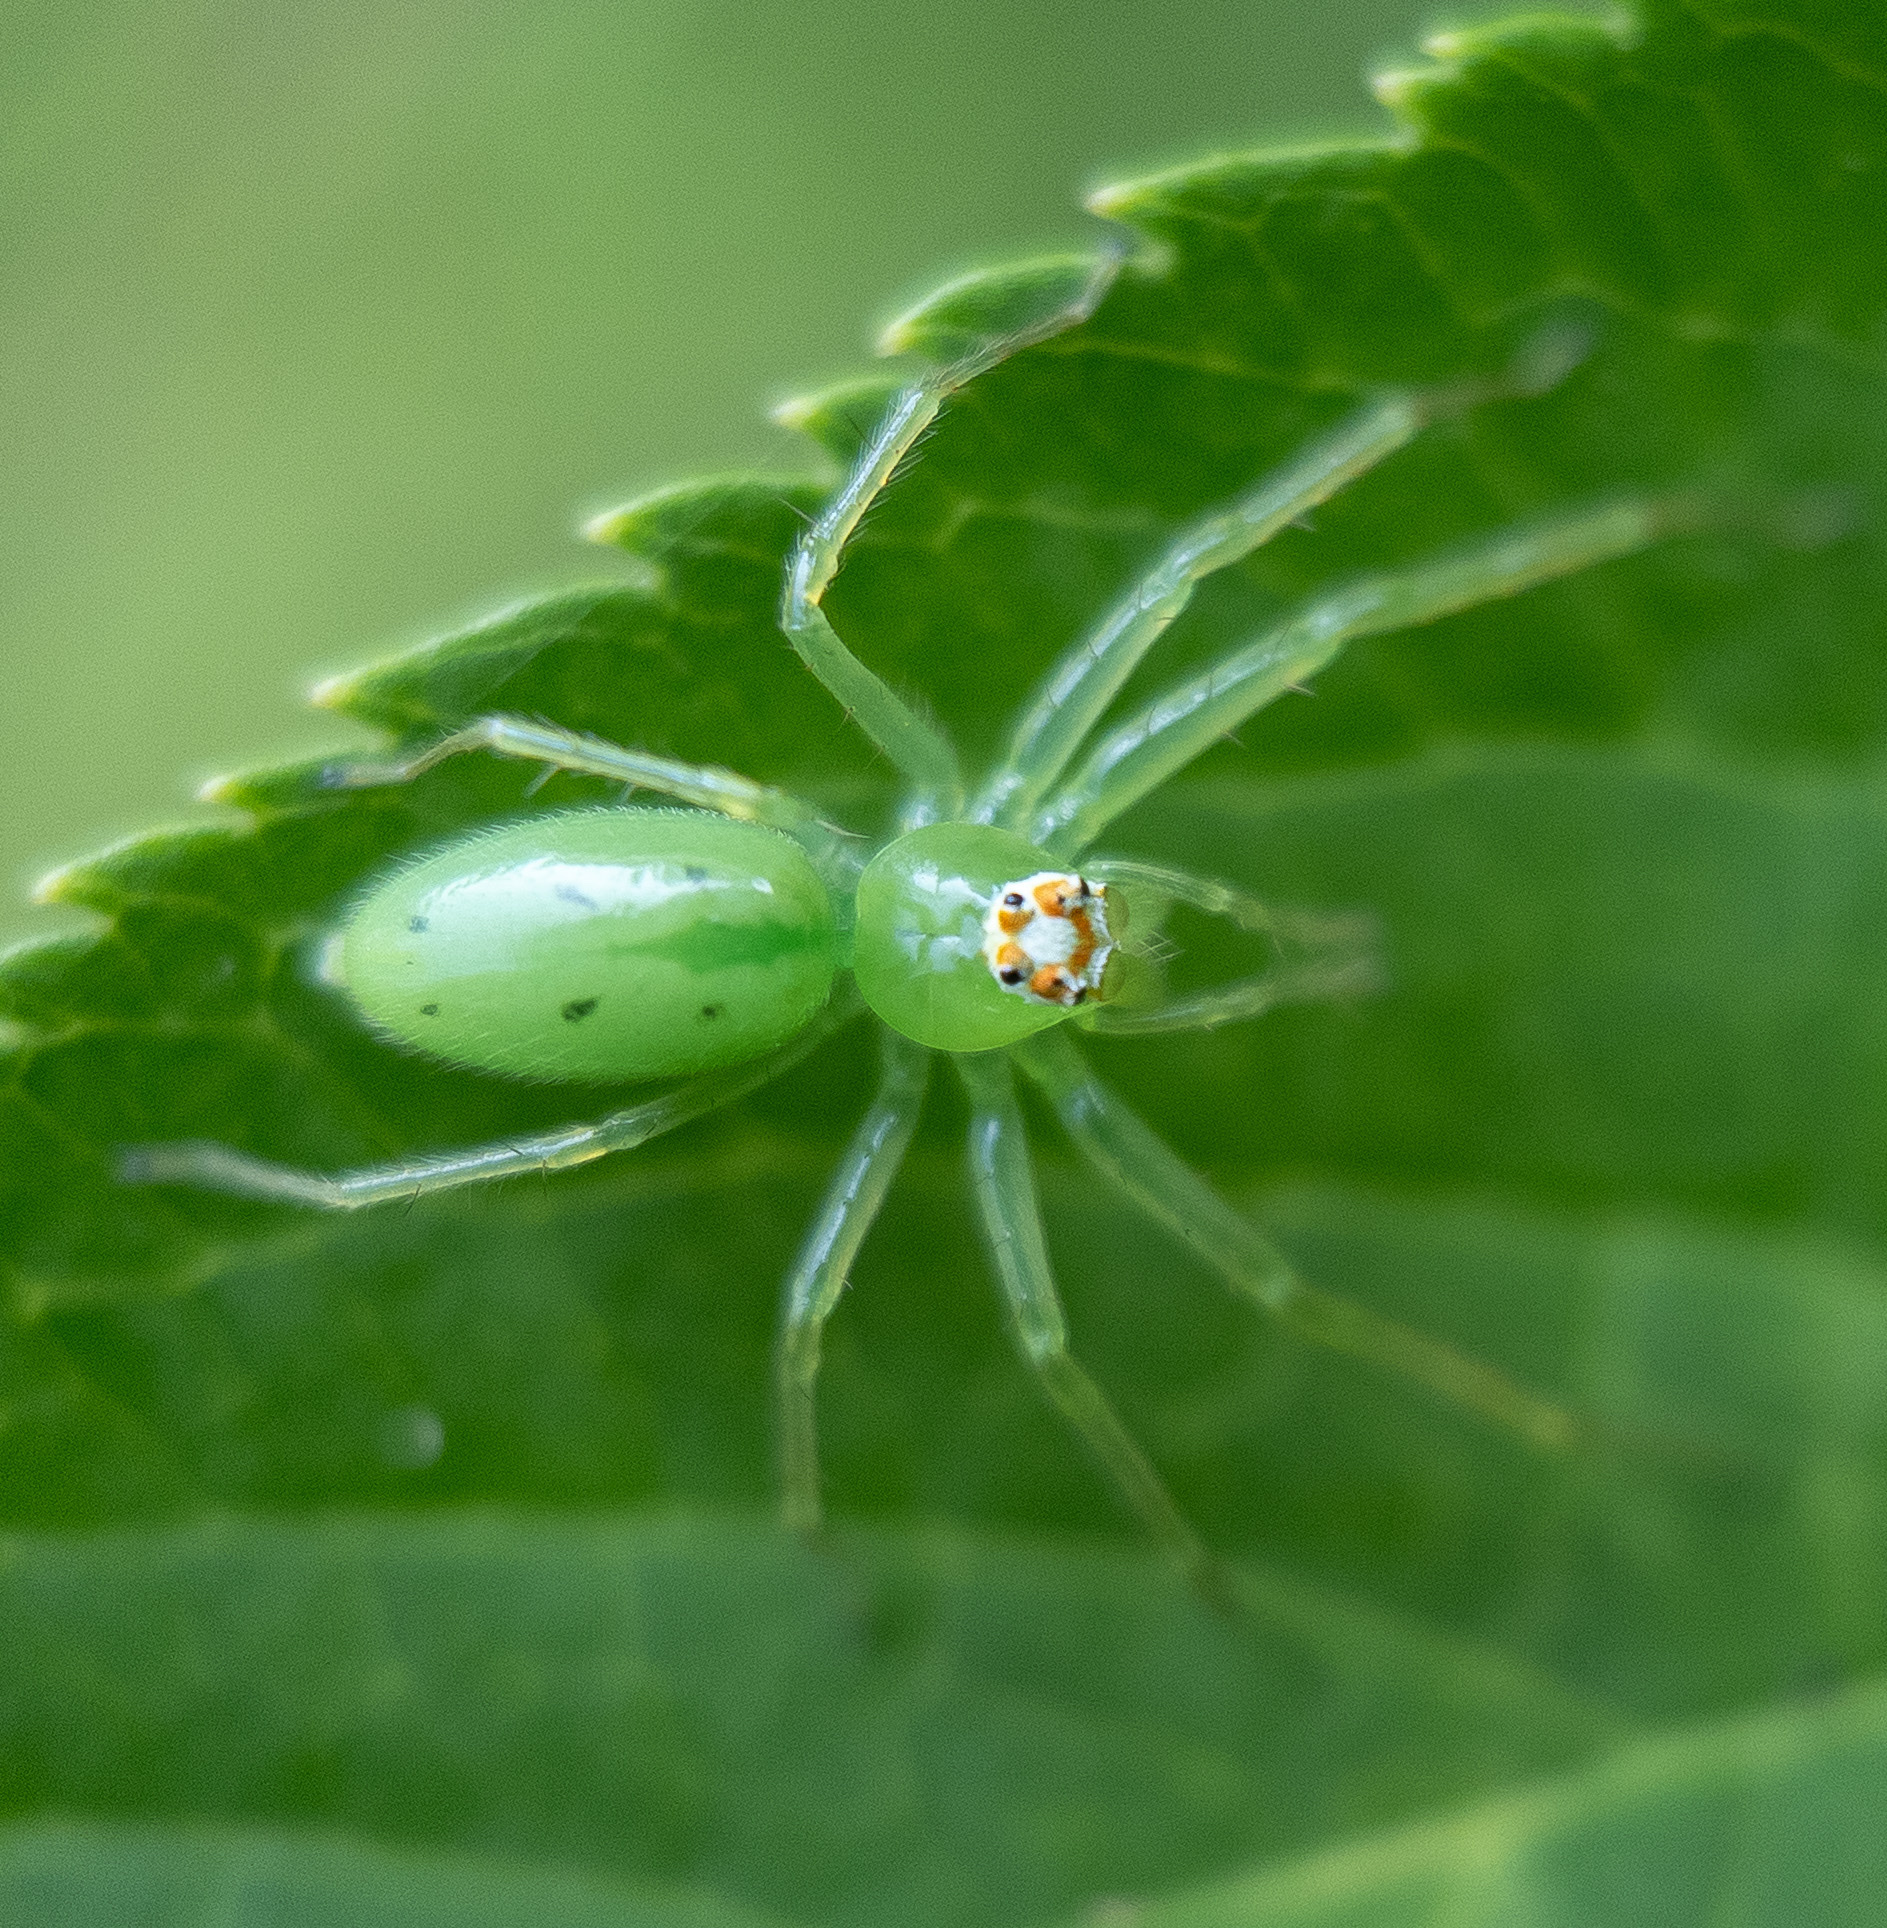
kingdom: Animalia
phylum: Arthropoda
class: Arachnida
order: Araneae
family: Salticidae
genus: Lyssomanes
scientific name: Lyssomanes viridis
